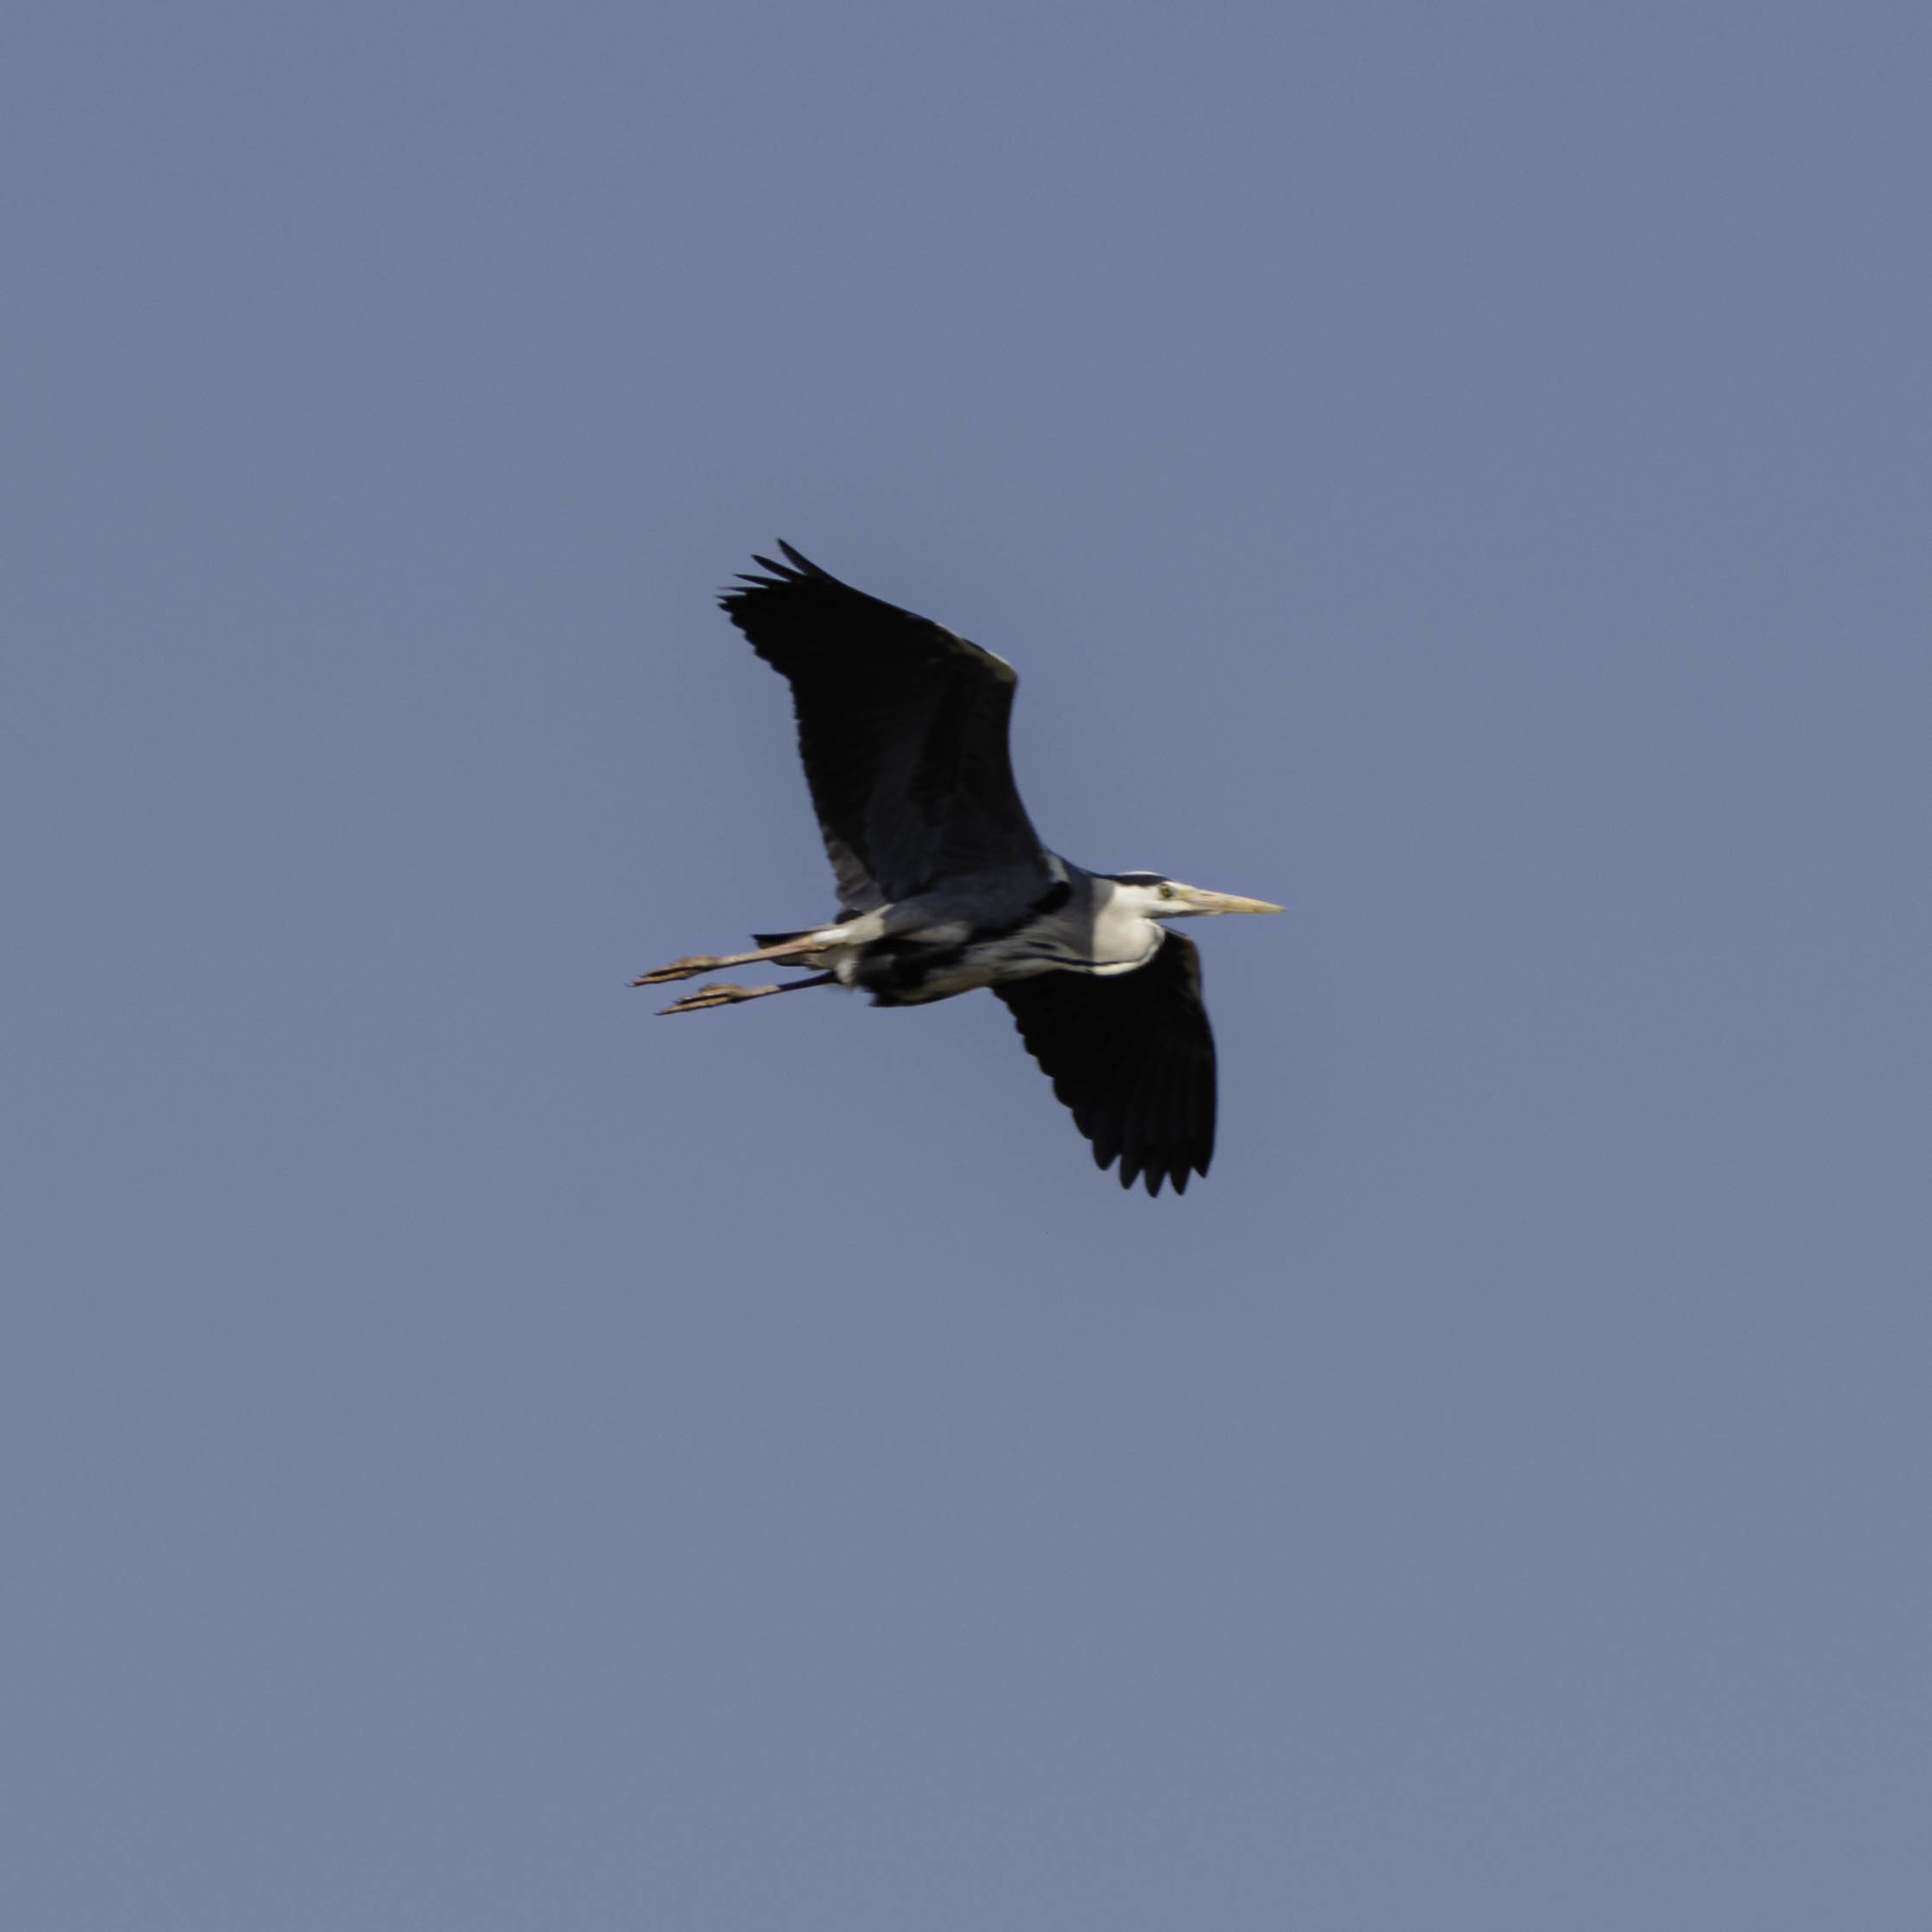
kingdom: Animalia
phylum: Chordata
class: Aves
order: Pelecaniformes
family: Ardeidae
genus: Ardea
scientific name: Ardea cinerea
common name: Grey heron
